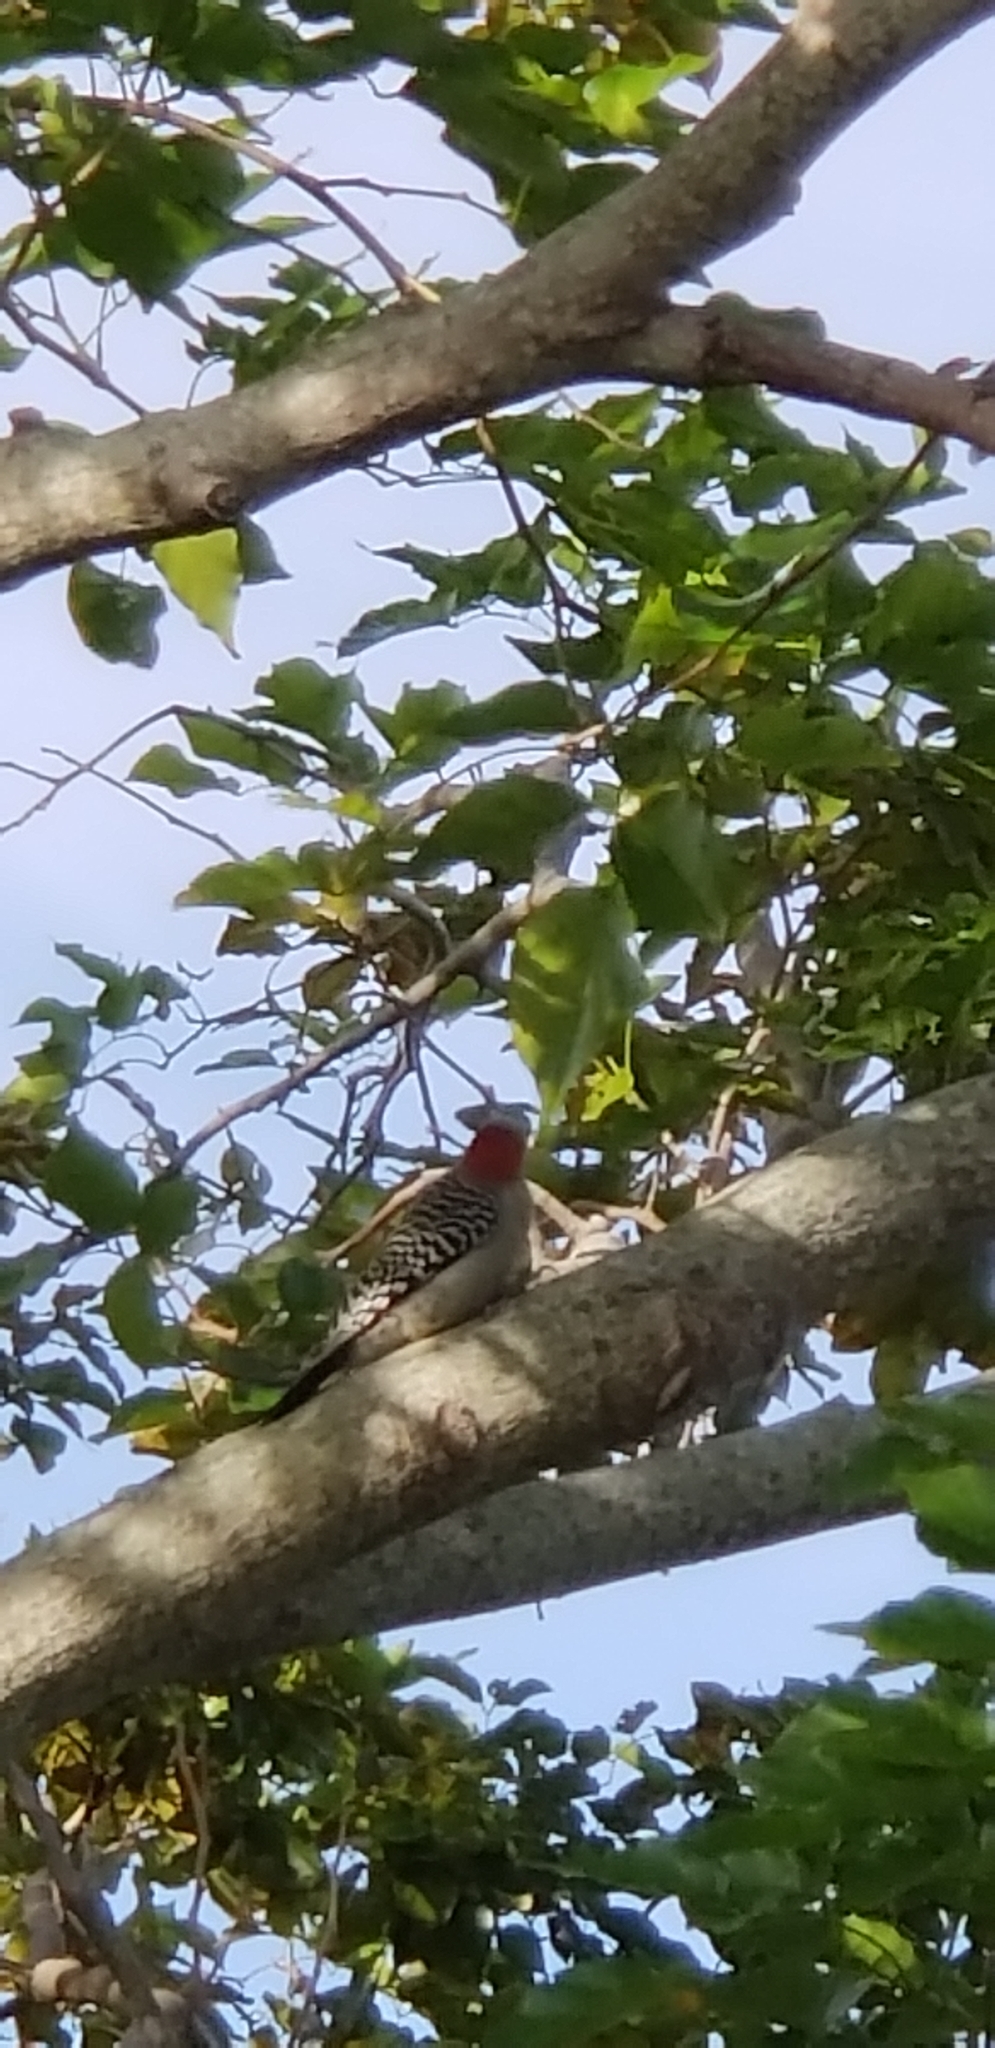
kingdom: Animalia
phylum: Chordata
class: Aves
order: Piciformes
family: Picidae
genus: Melanerpes
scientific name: Melanerpes carolinus
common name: Red-bellied woodpecker
